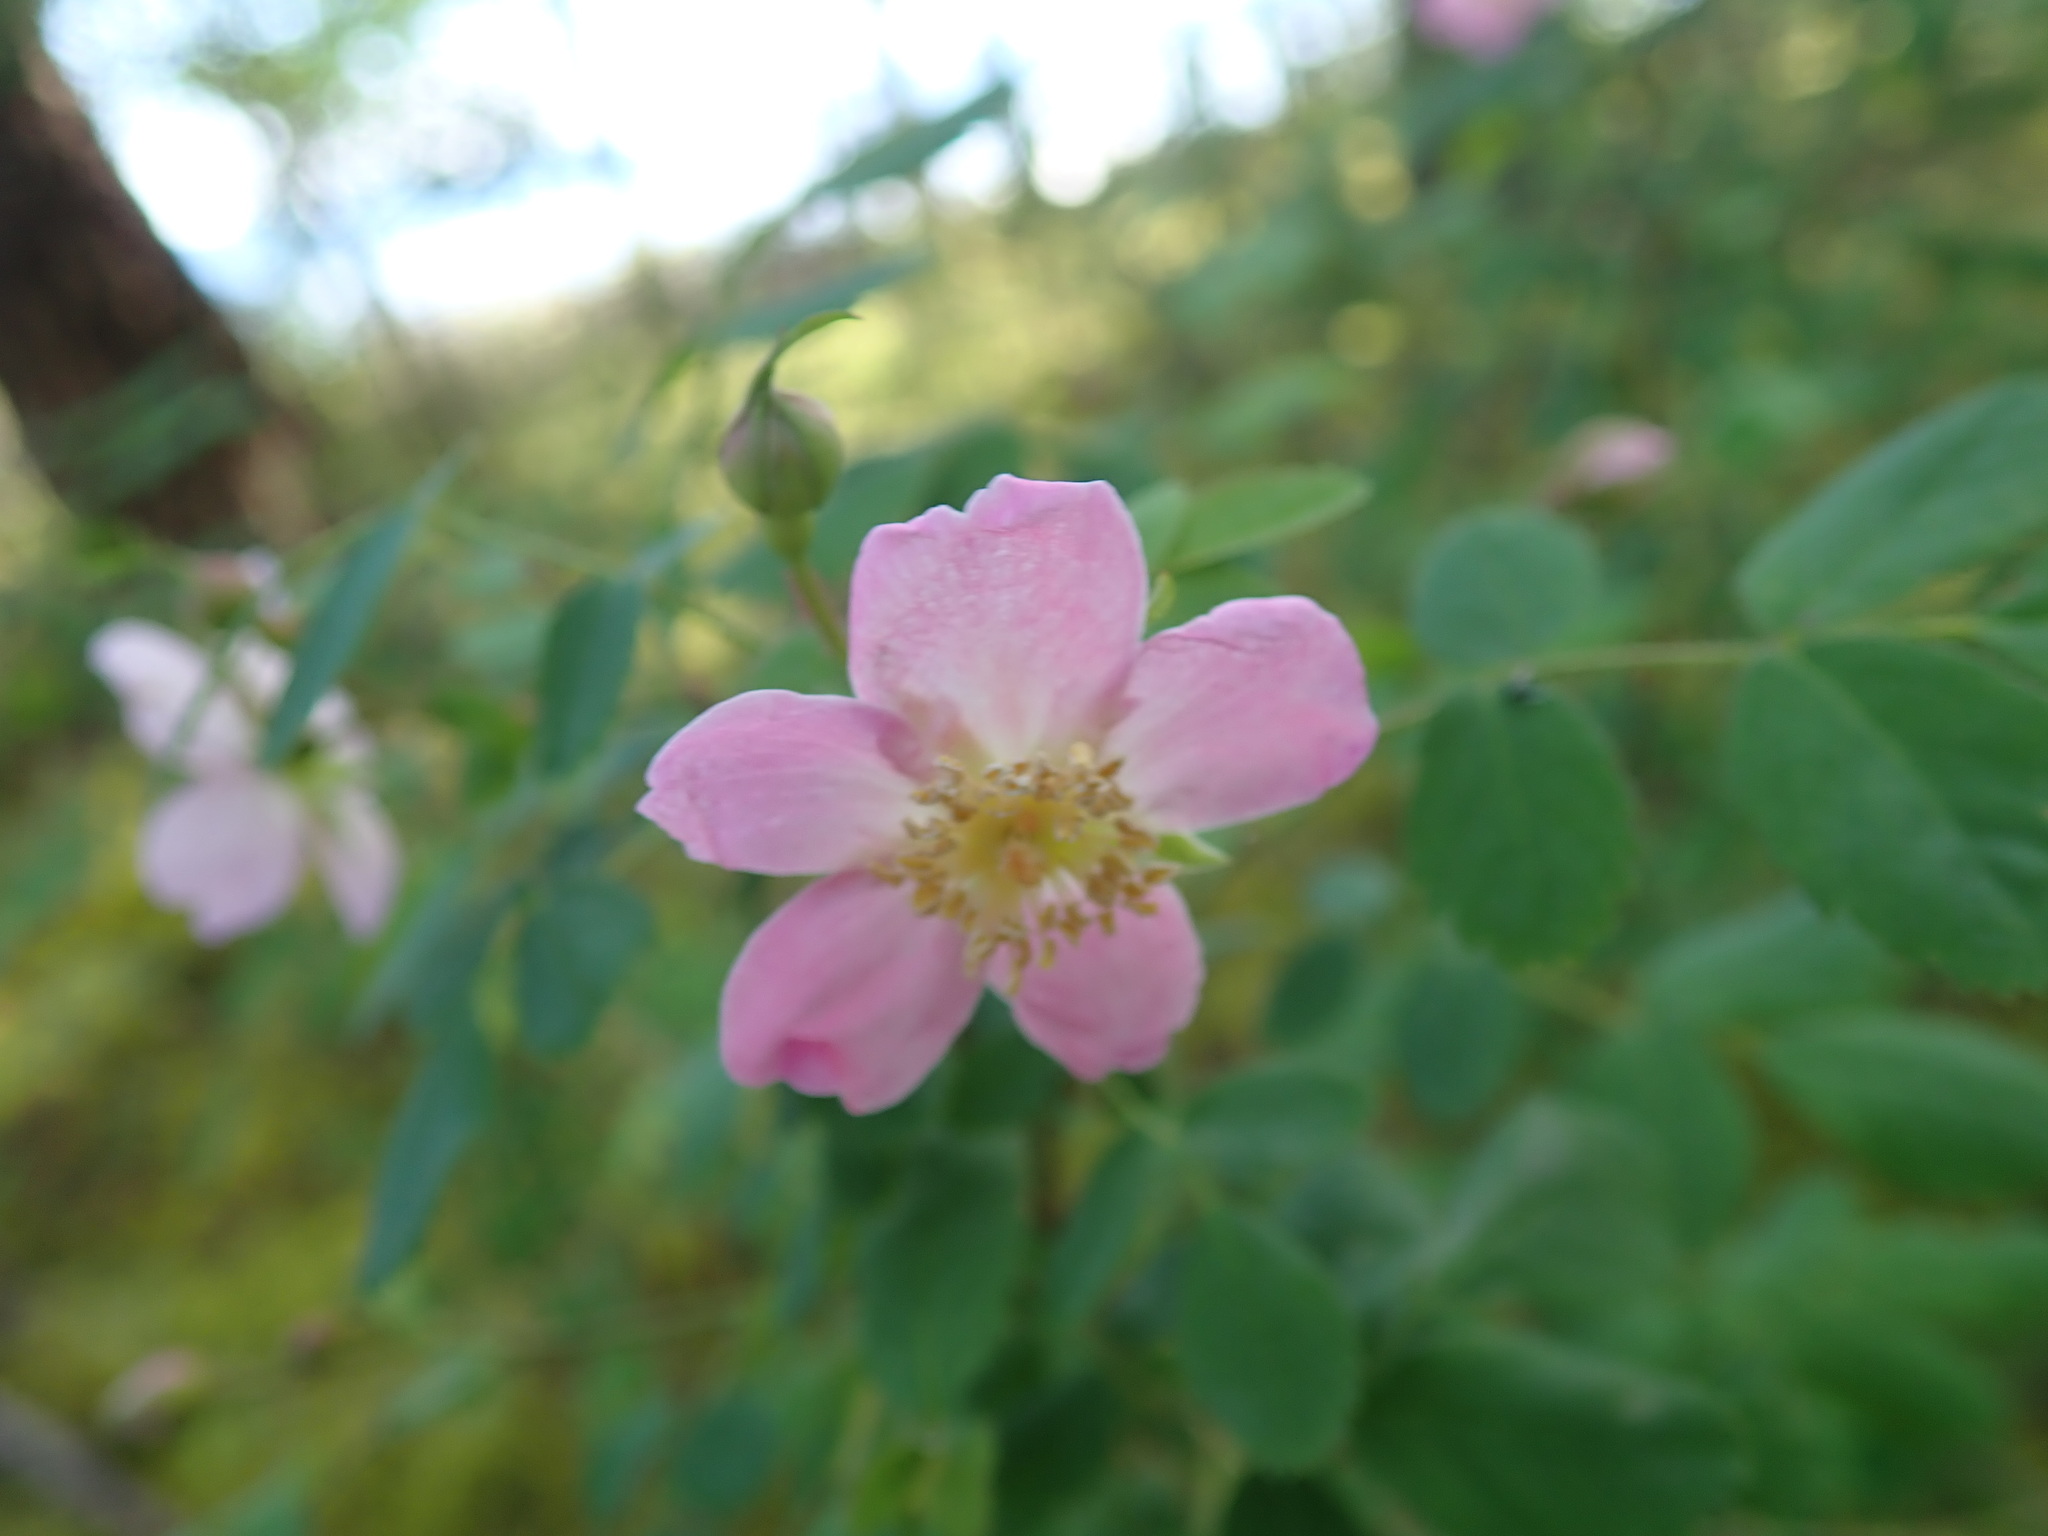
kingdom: Plantae
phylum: Tracheophyta
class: Magnoliopsida
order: Rosales
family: Rosaceae
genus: Rosa
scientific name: Rosa gymnocarpa
